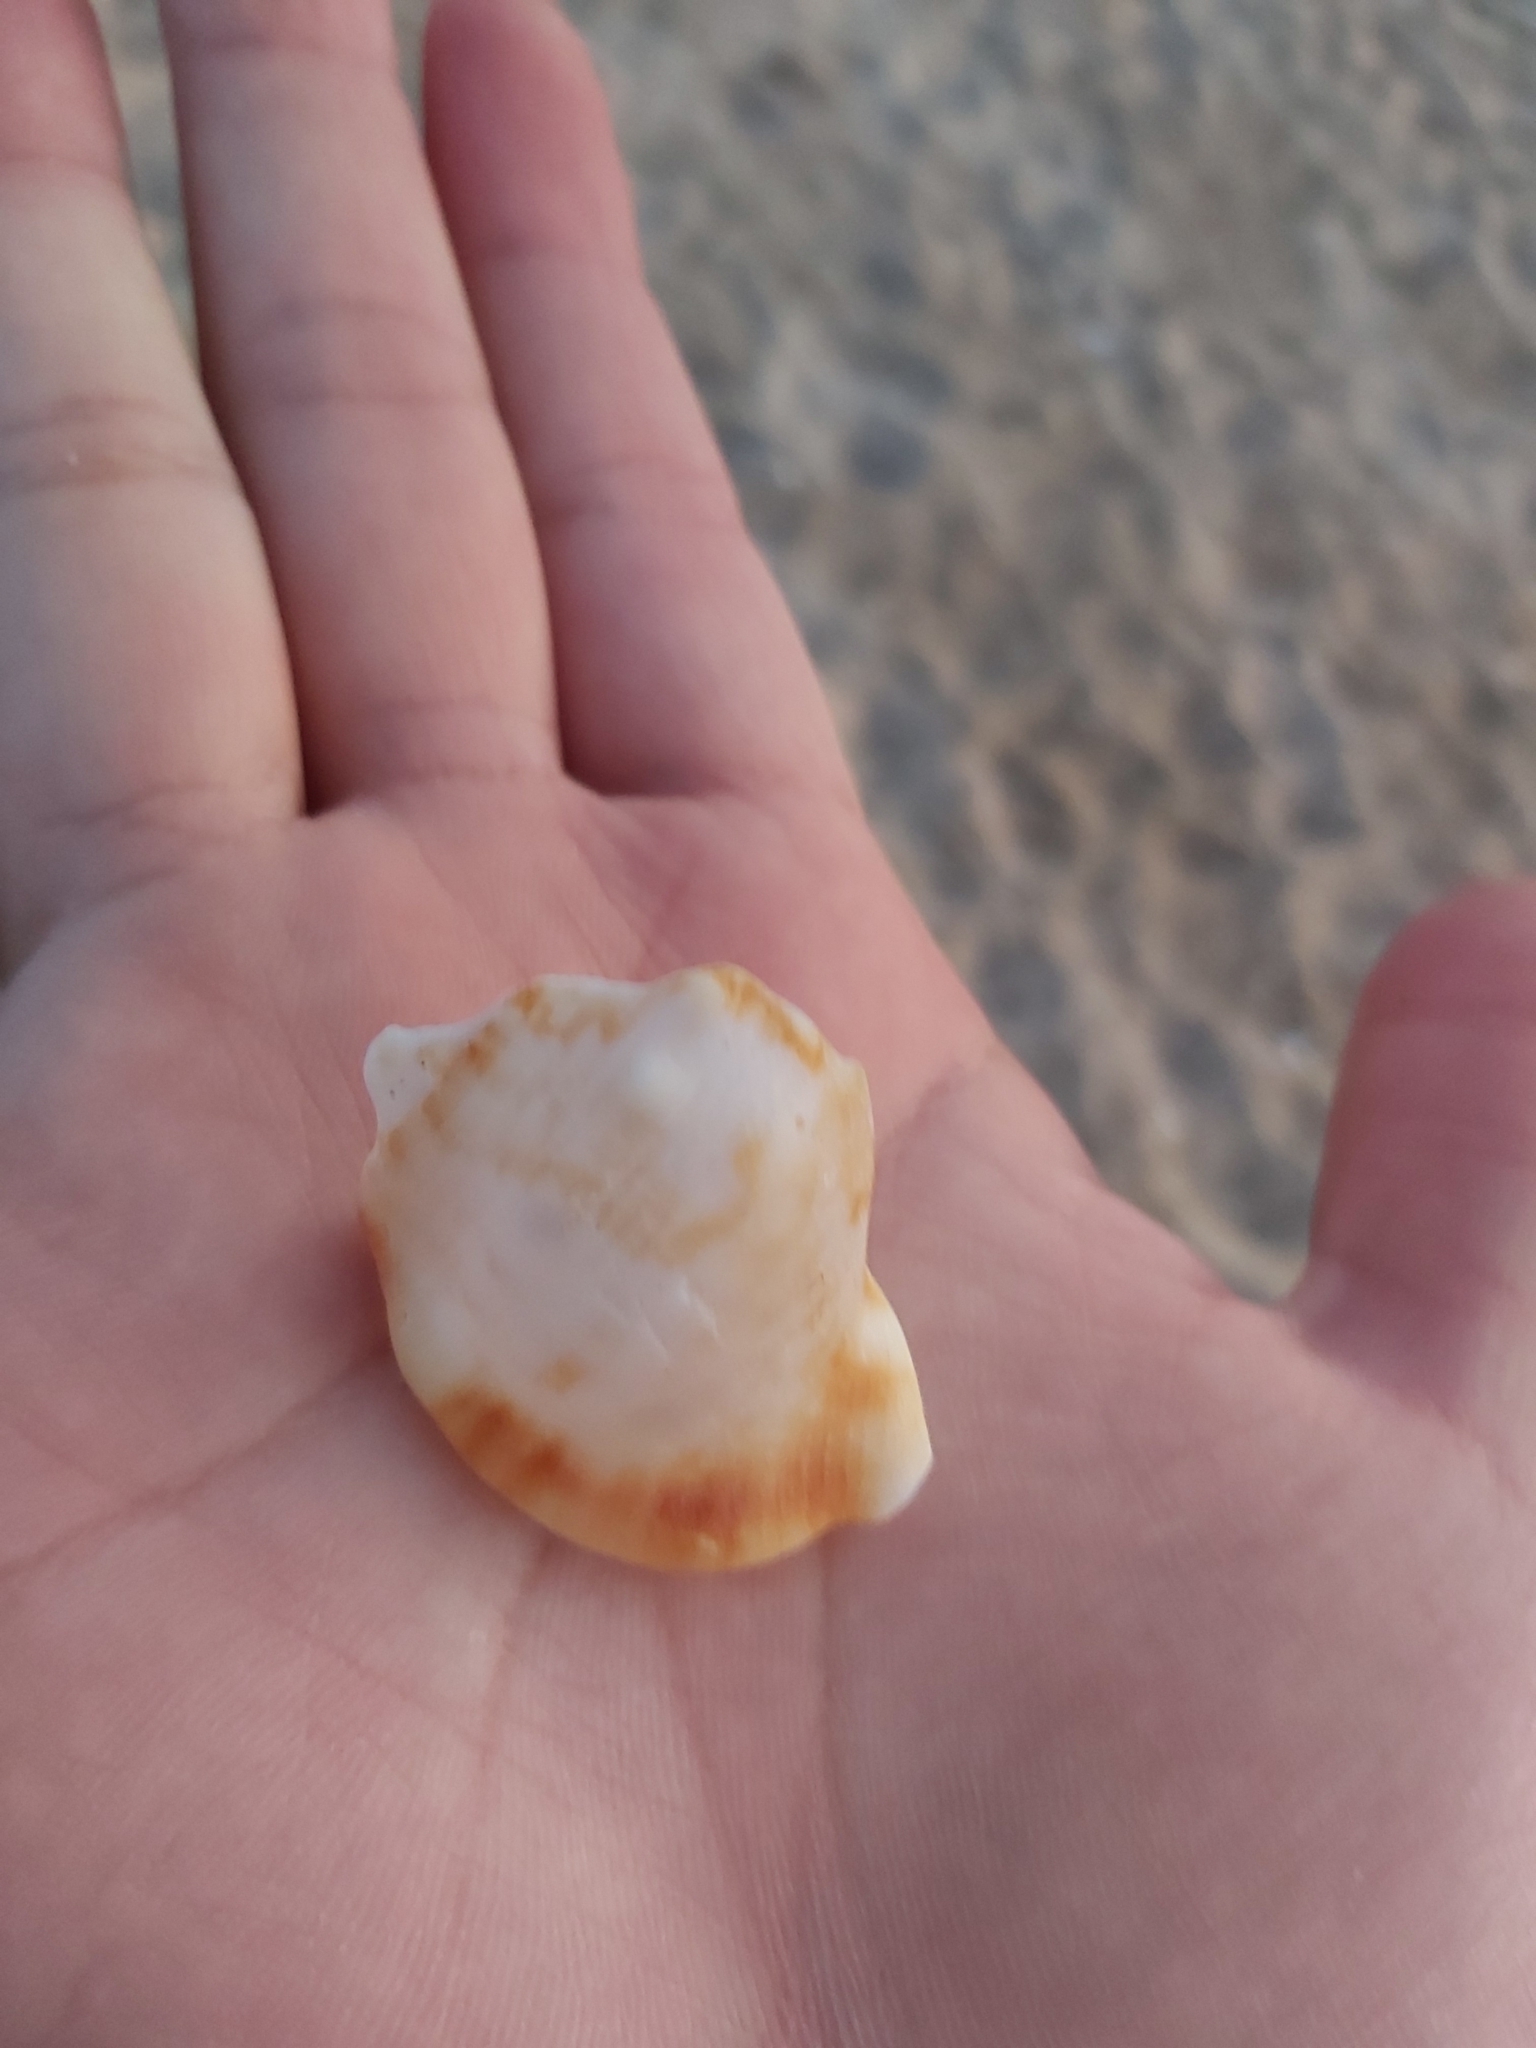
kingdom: Animalia
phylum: Mollusca
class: Gastropoda
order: Littorinimorpha
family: Charoniidae
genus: Charonia
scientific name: Charonia lampas
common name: Knobbed triton
